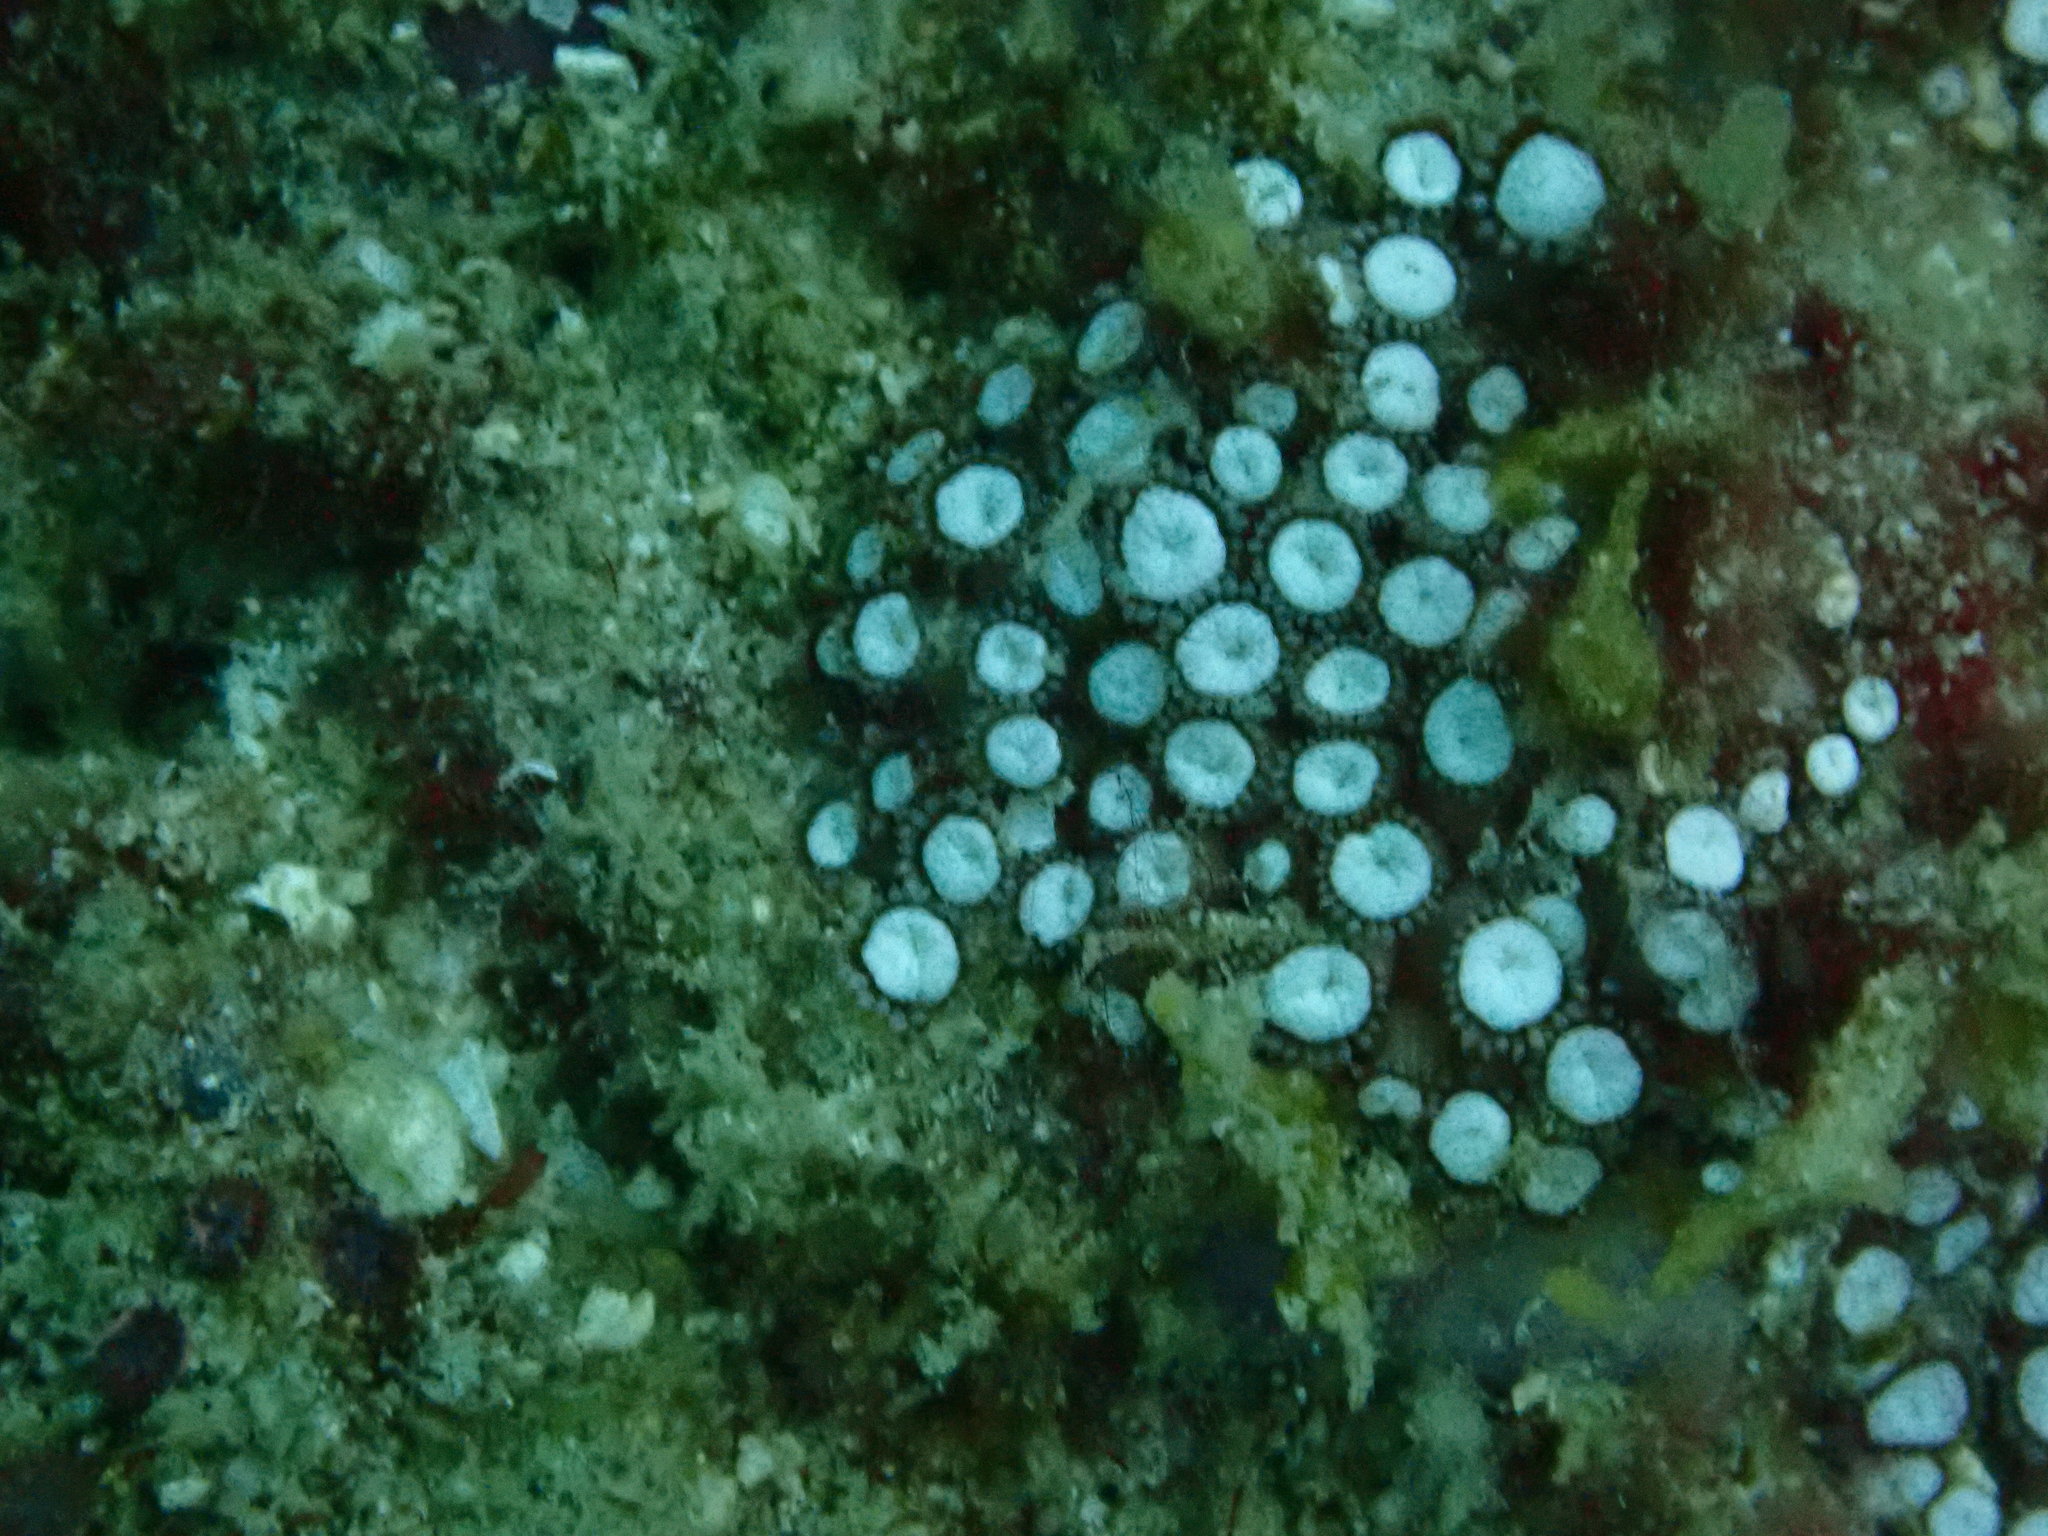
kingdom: Animalia
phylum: Cnidaria
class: Anthozoa
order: Scleractinia
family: Poritidae
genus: Goniopora
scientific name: Goniopora albiconus
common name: Anemone coral
